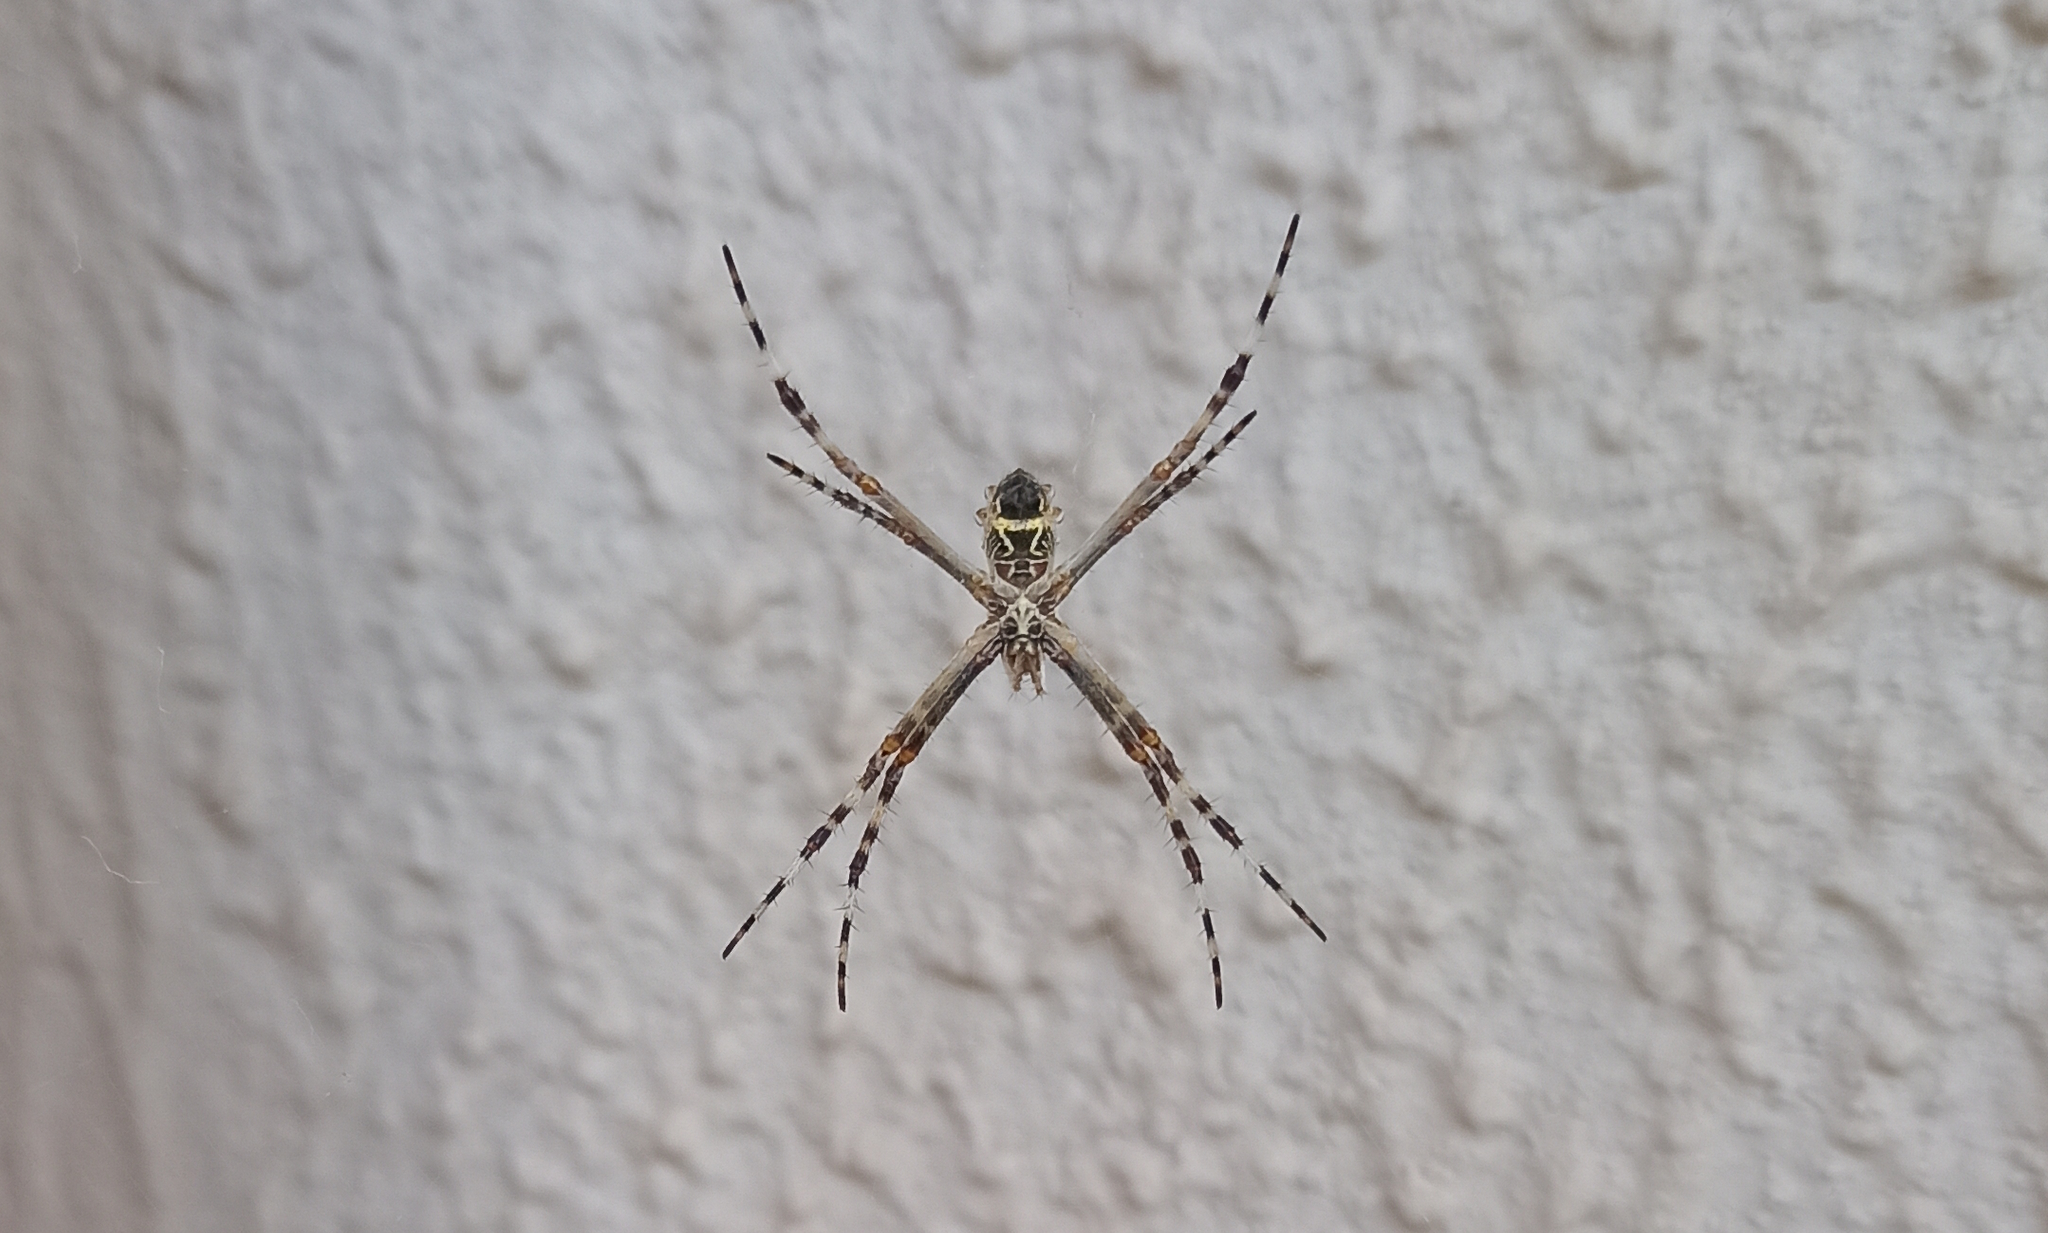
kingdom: Animalia
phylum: Arthropoda
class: Arachnida
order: Araneae
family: Araneidae
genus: Argiope
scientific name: Argiope argentata
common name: Orb weavers
